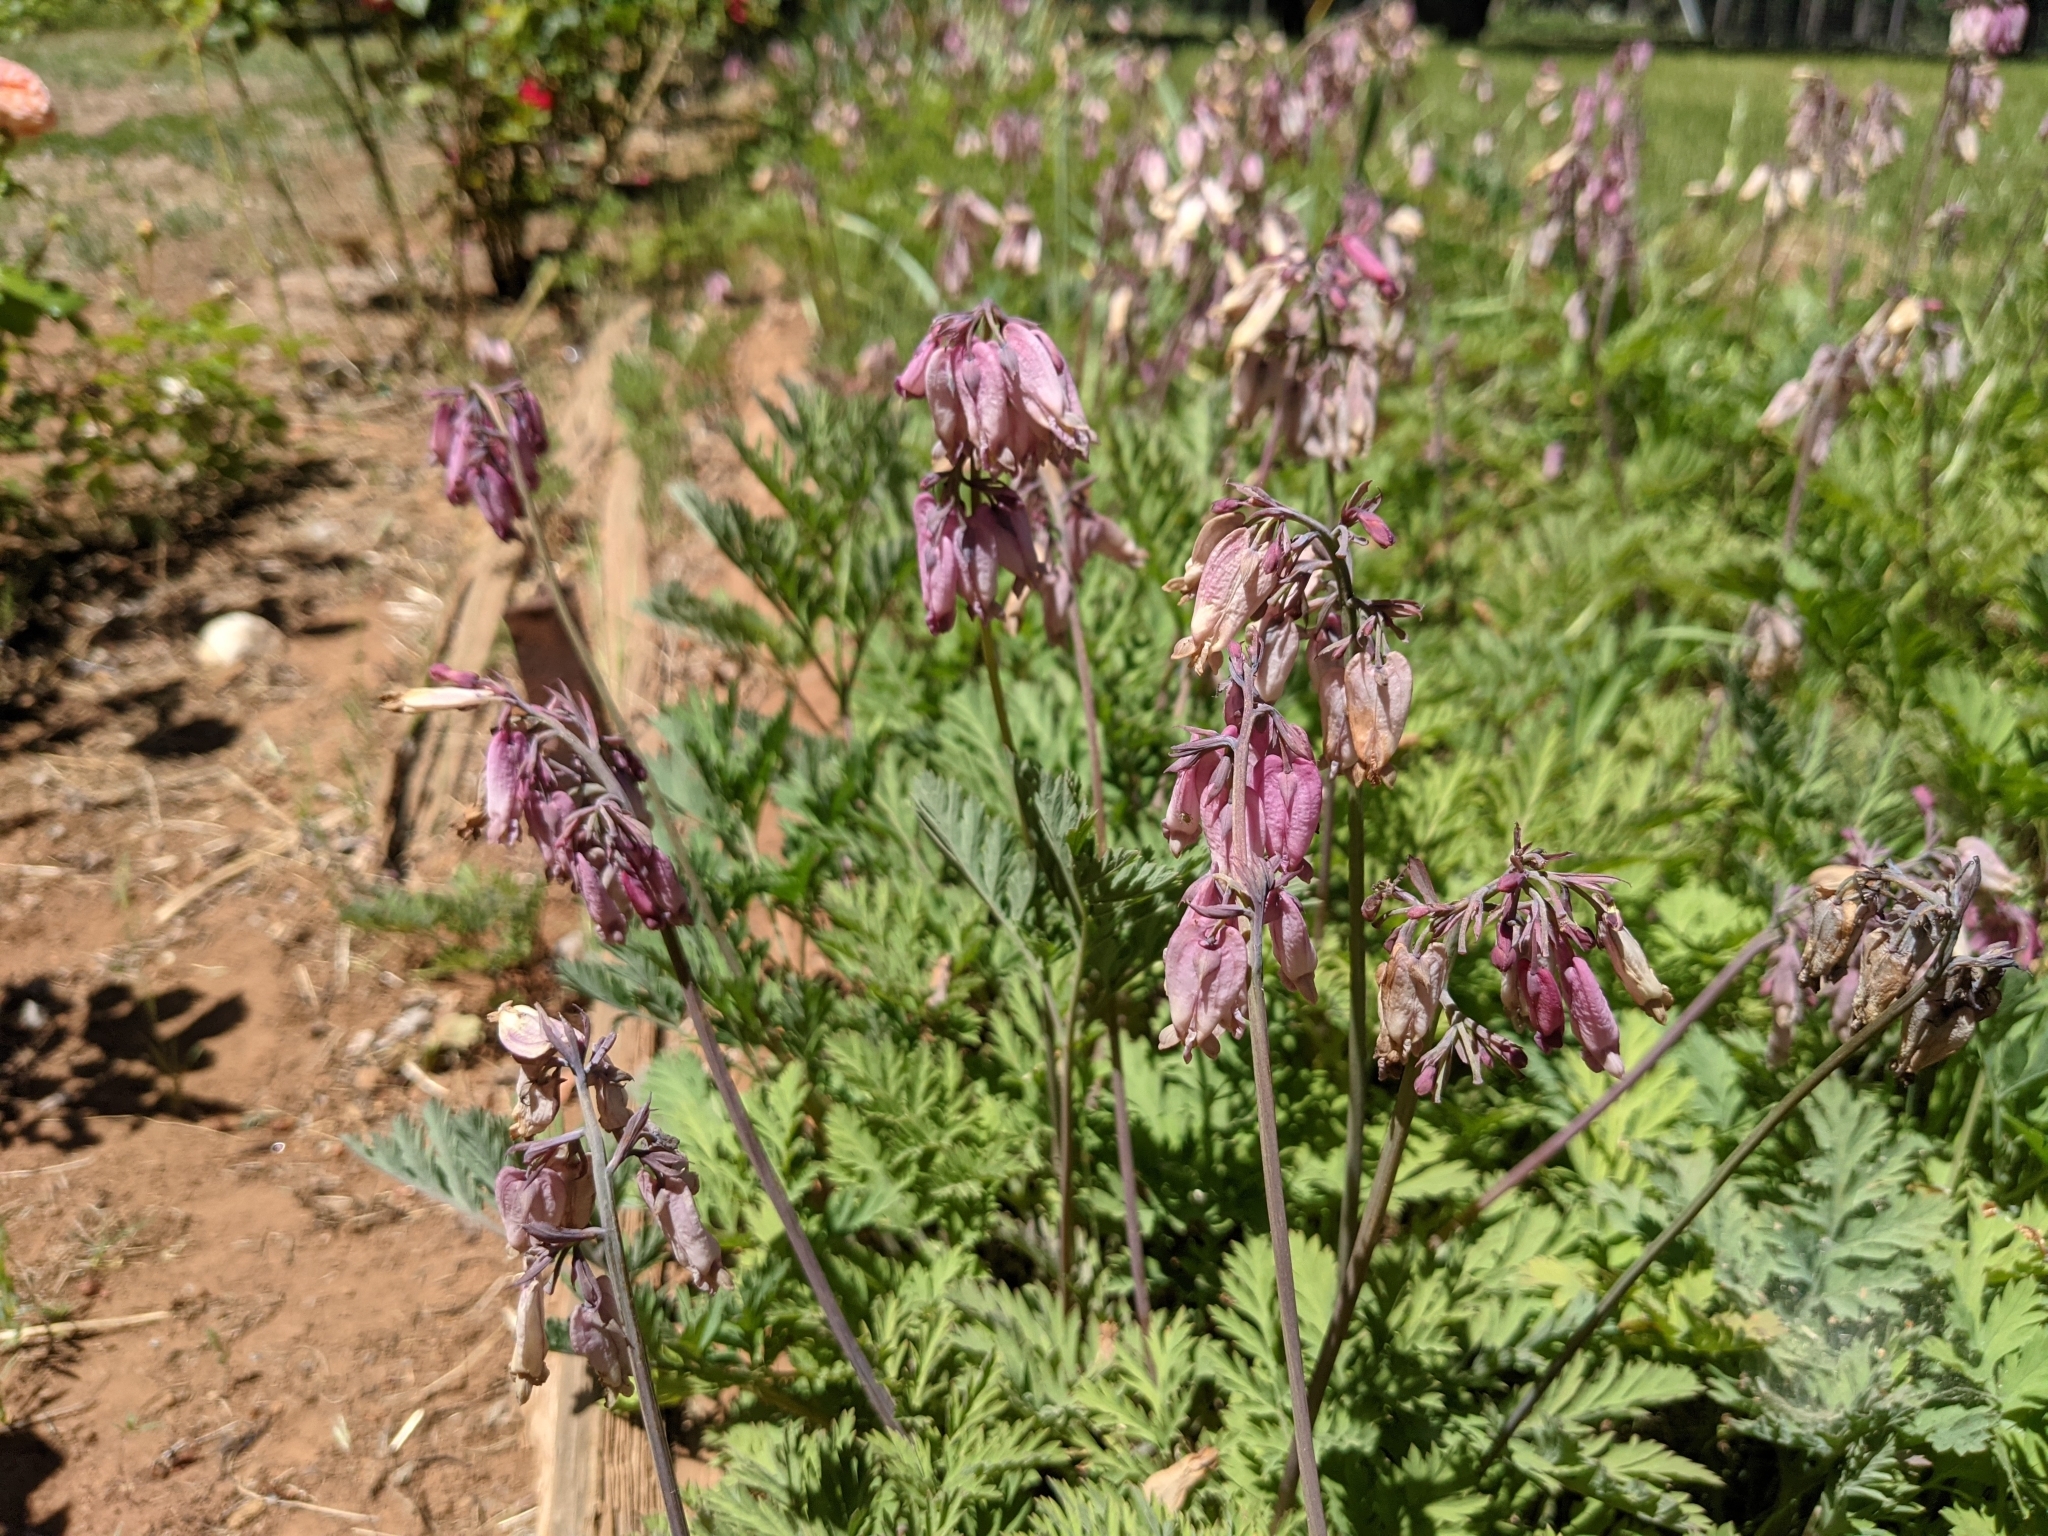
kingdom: Plantae
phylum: Tracheophyta
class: Magnoliopsida
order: Ranunculales
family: Papaveraceae
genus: Dicentra
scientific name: Dicentra formosa
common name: Bleeding-heart
